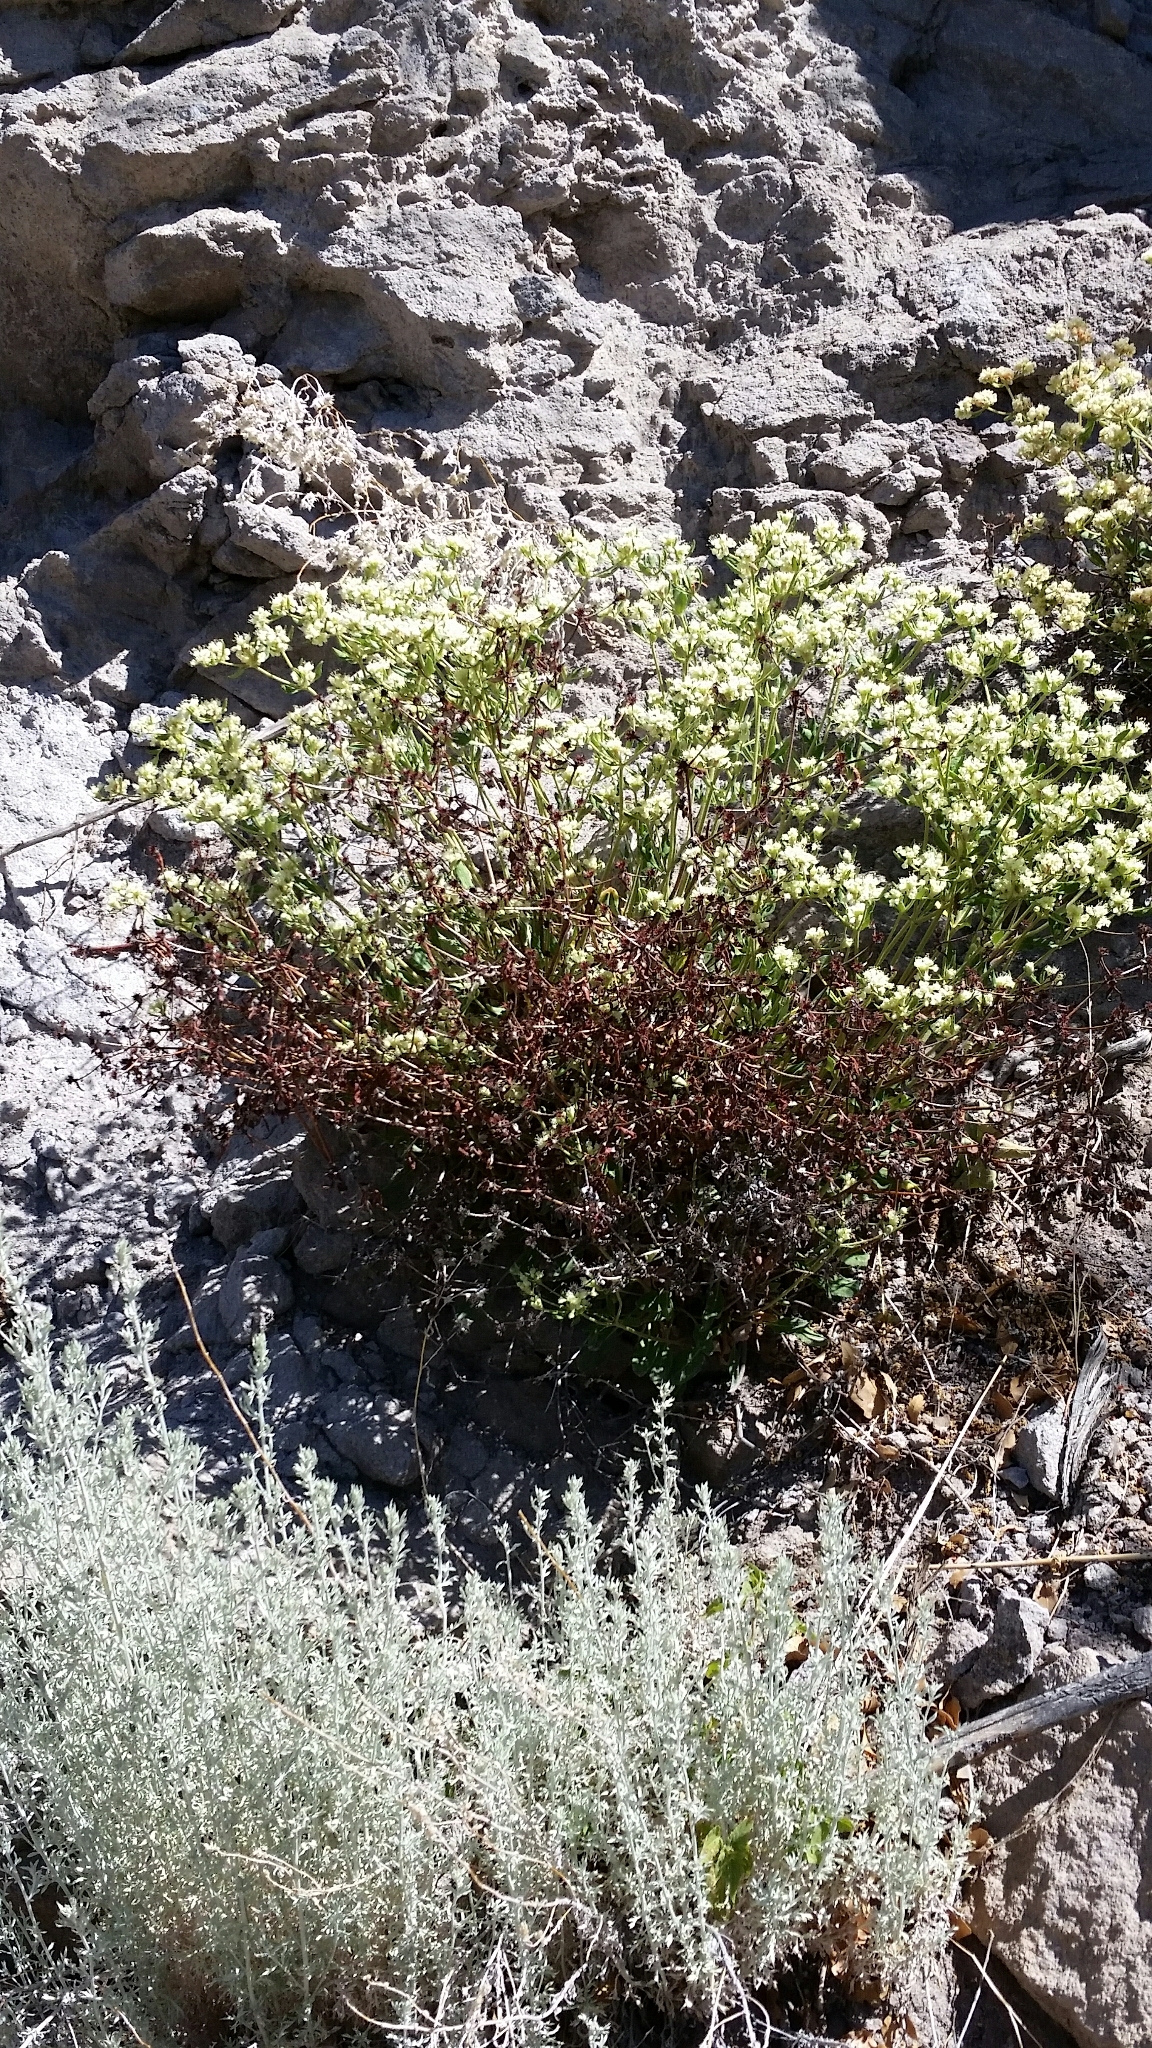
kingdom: Plantae
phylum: Tracheophyta
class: Magnoliopsida
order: Caryophyllales
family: Polygonaceae
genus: Eriogonum
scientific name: Eriogonum jamesii
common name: Antelope-sage
